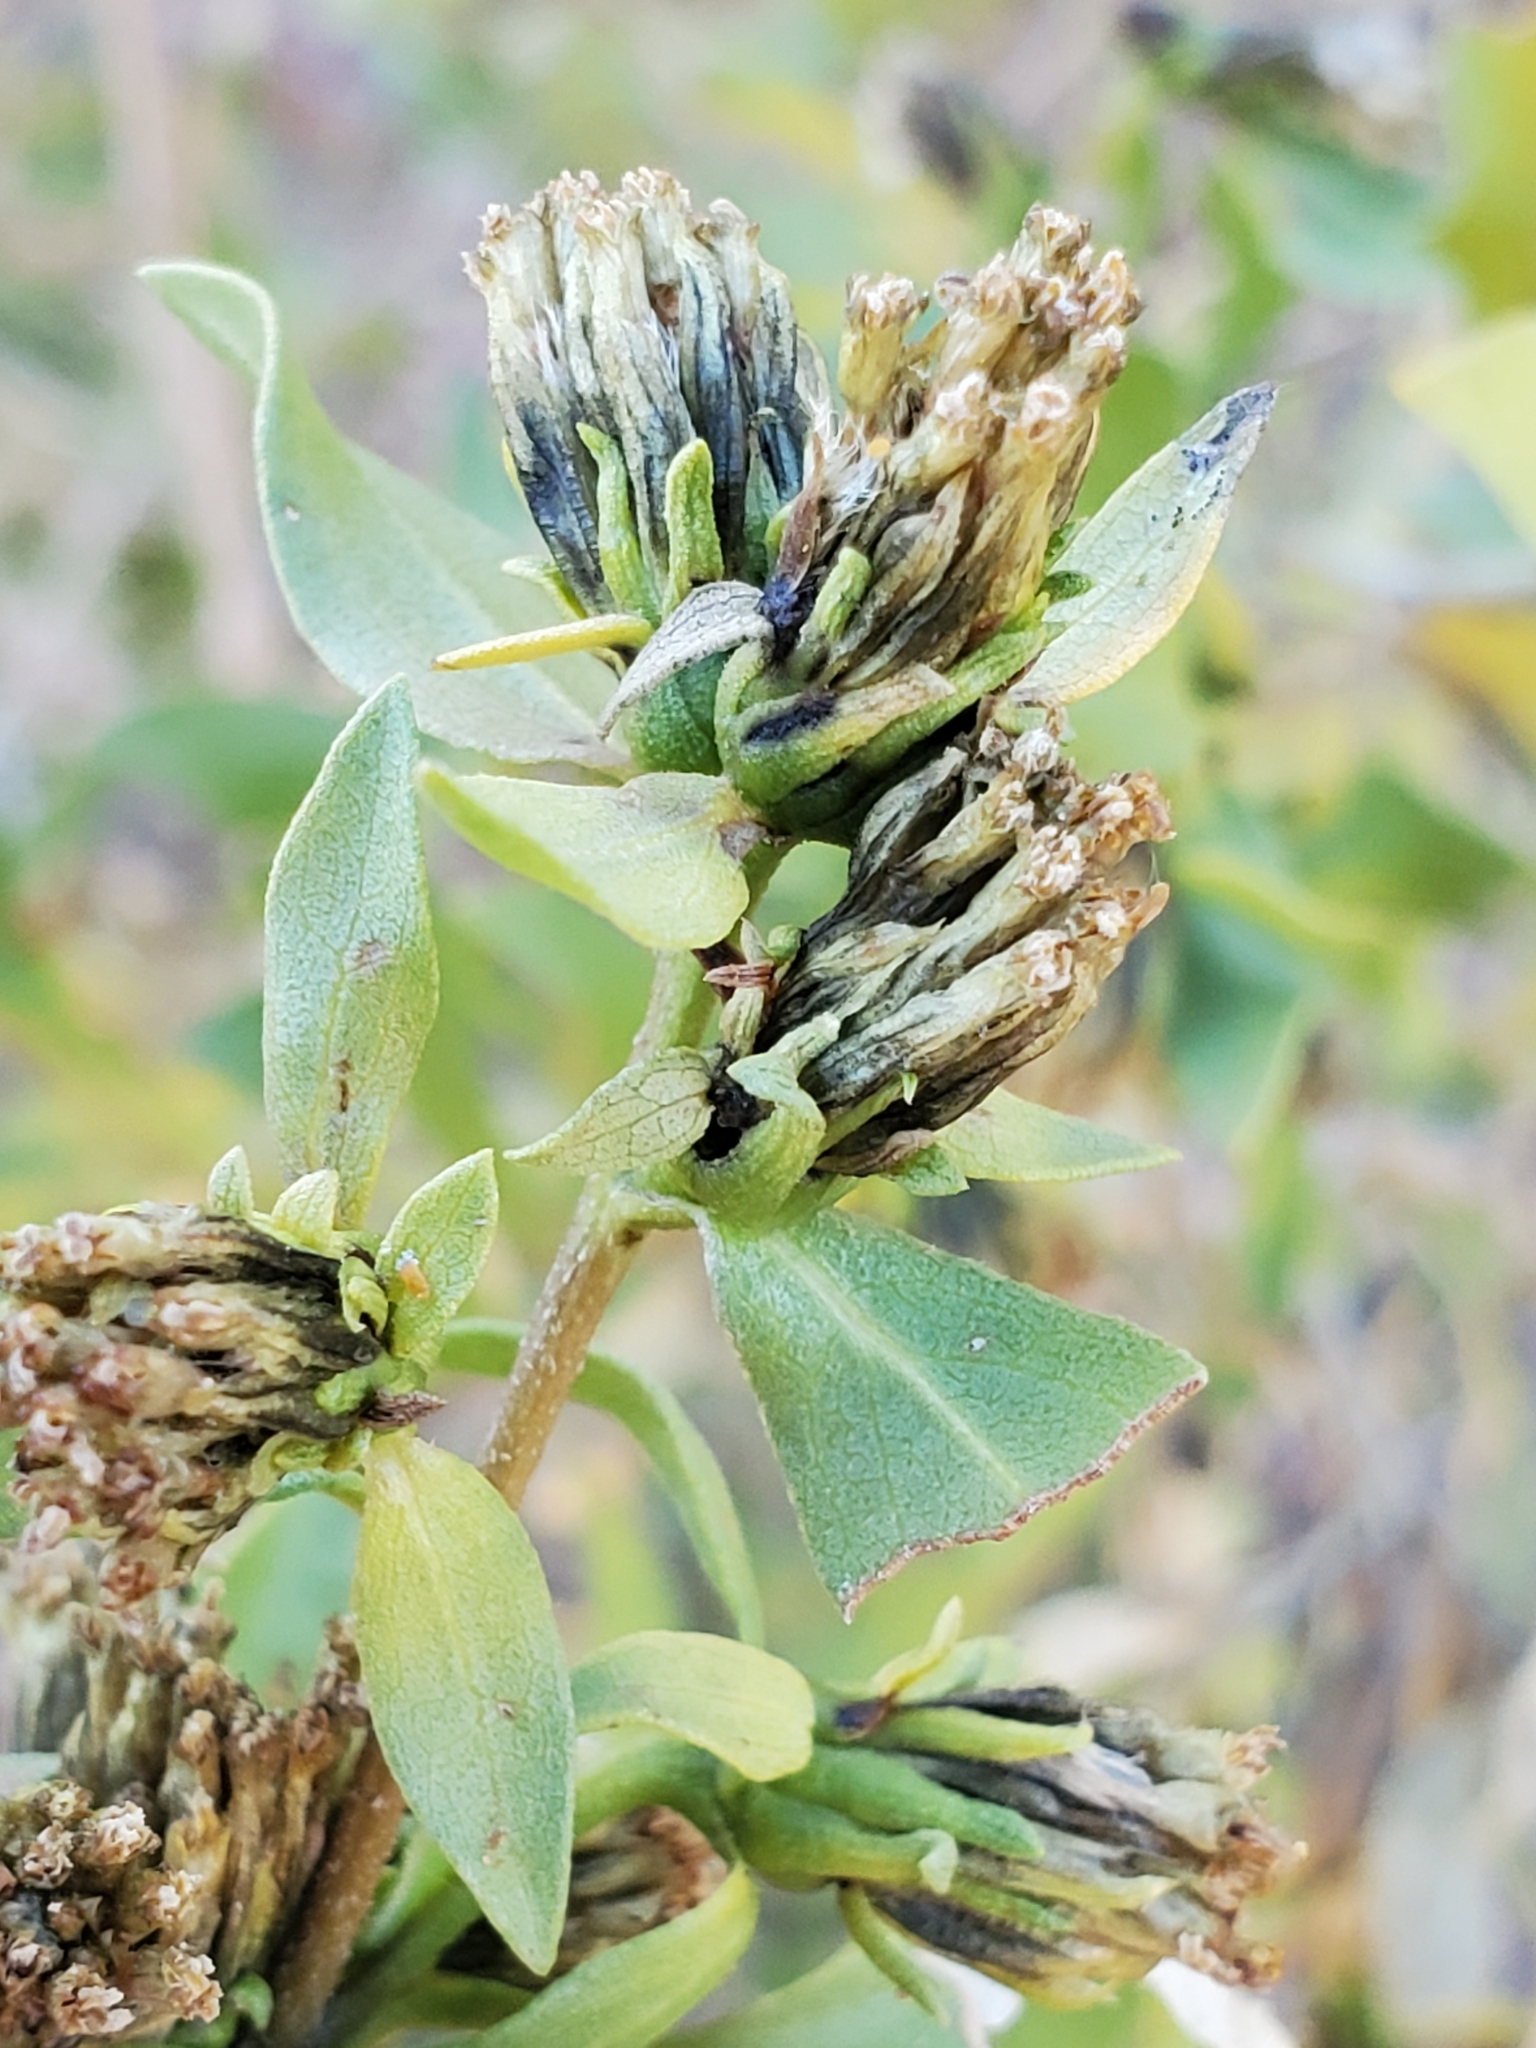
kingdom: Plantae
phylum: Tracheophyta
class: Magnoliopsida
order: Asterales
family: Asteraceae
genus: Flourensia
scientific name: Flourensia cernua
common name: Varnishbush
